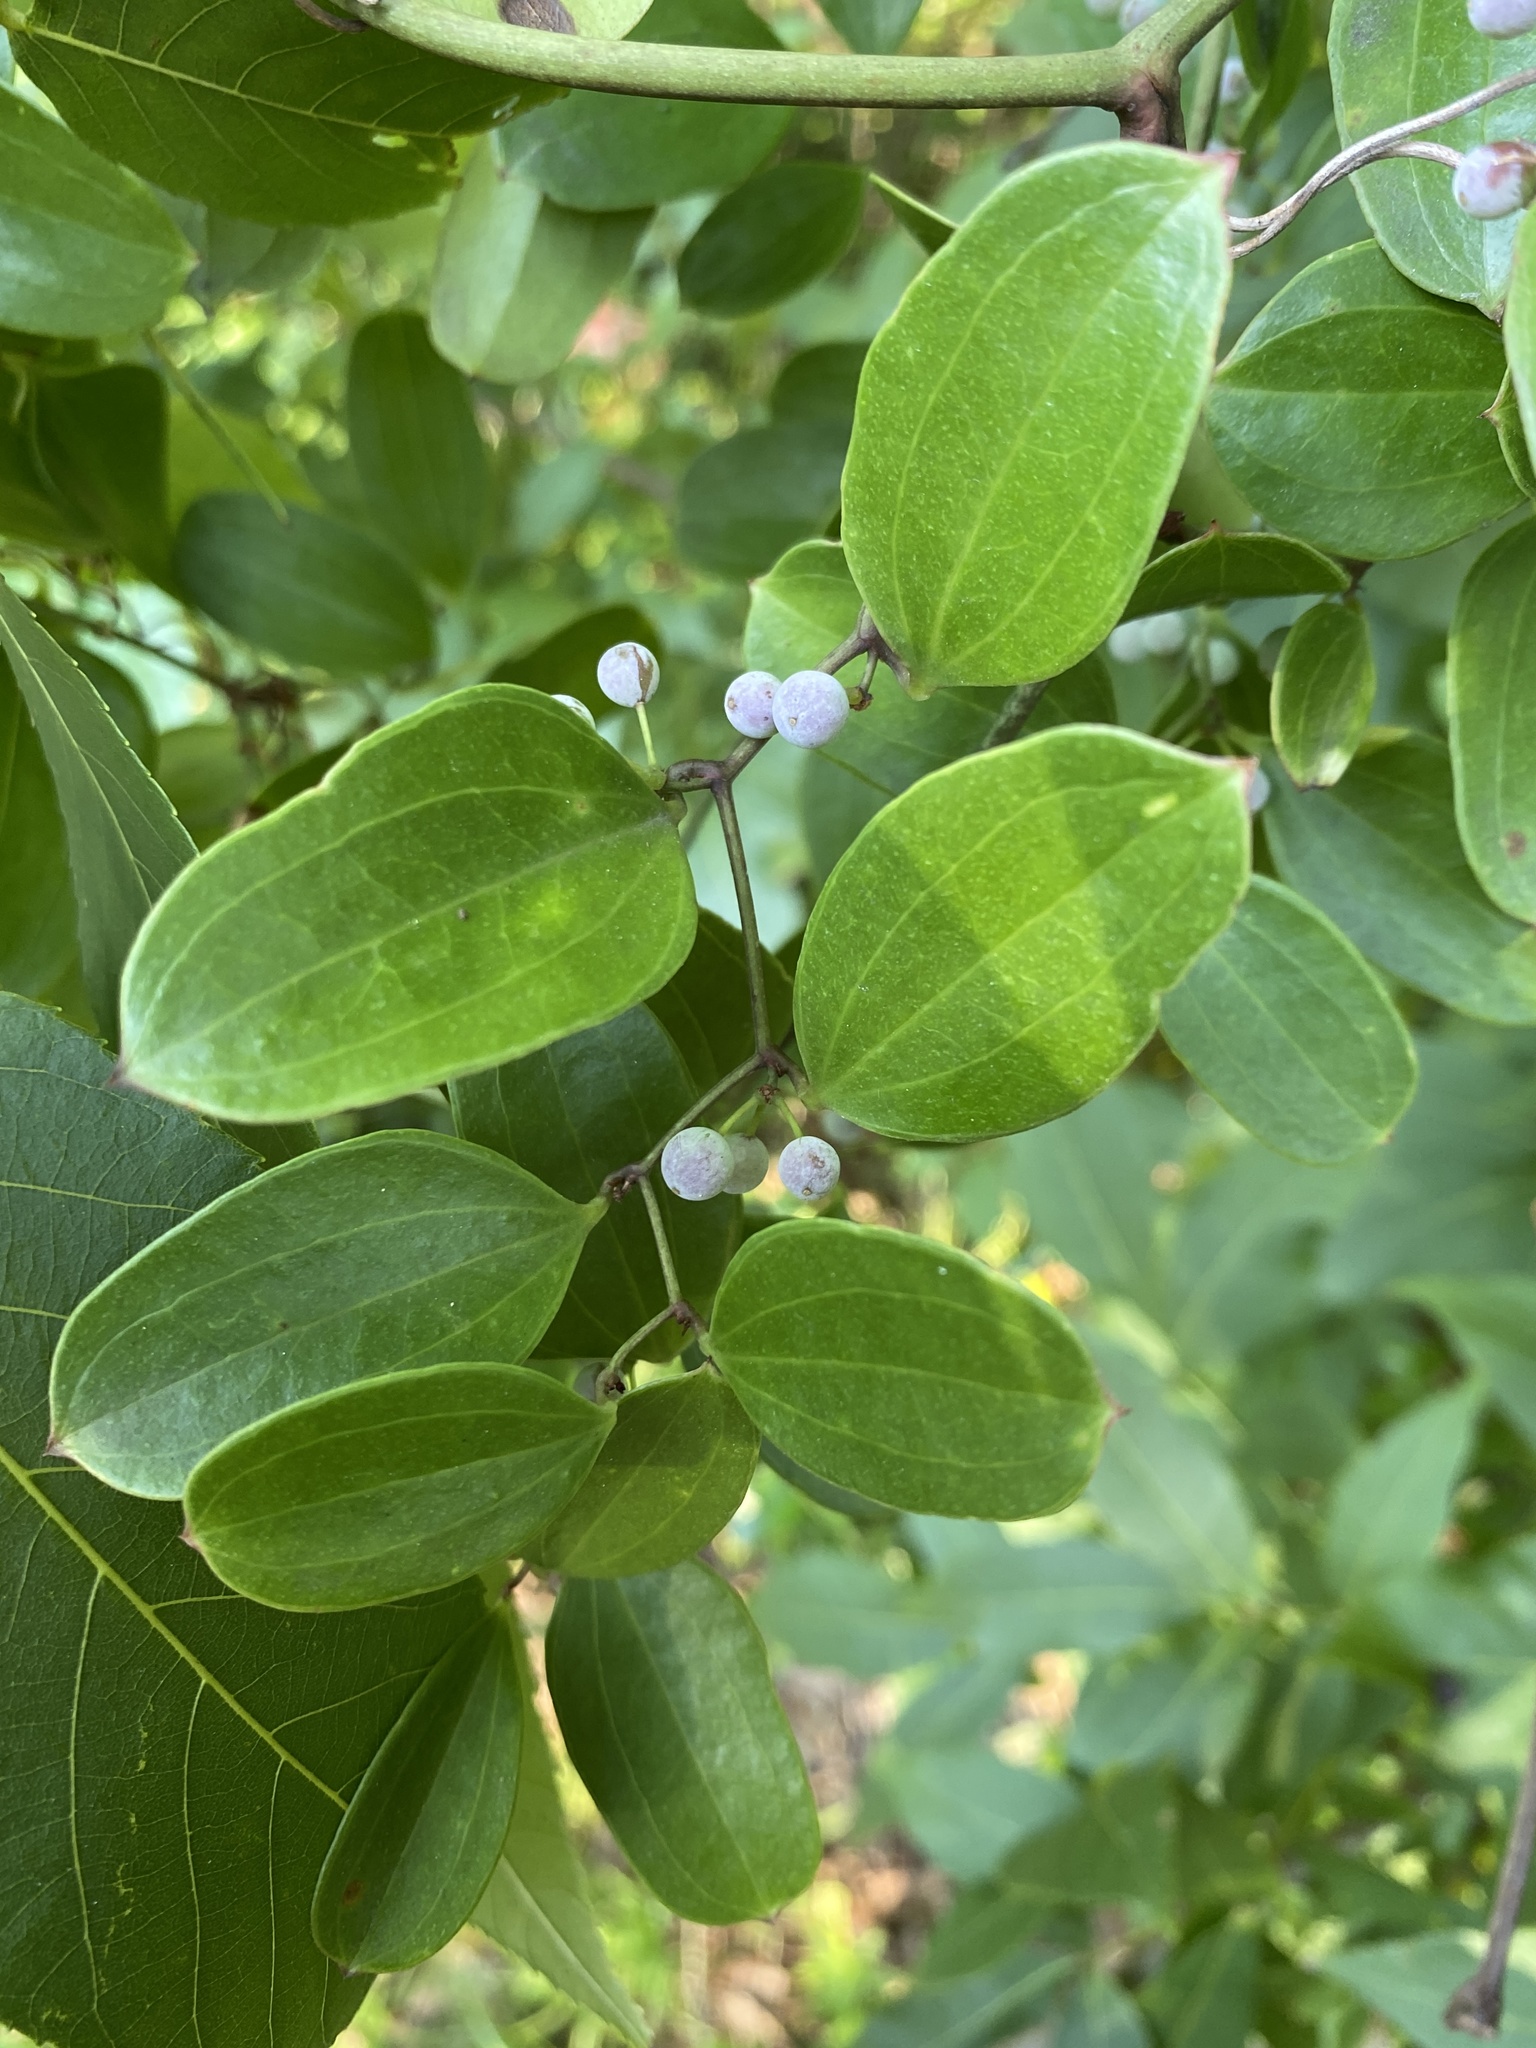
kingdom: Plantae
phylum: Tracheophyta
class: Liliopsida
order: Liliales
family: Smilacaceae
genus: Smilax
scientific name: Smilax auriculata
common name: Wild bamboo
